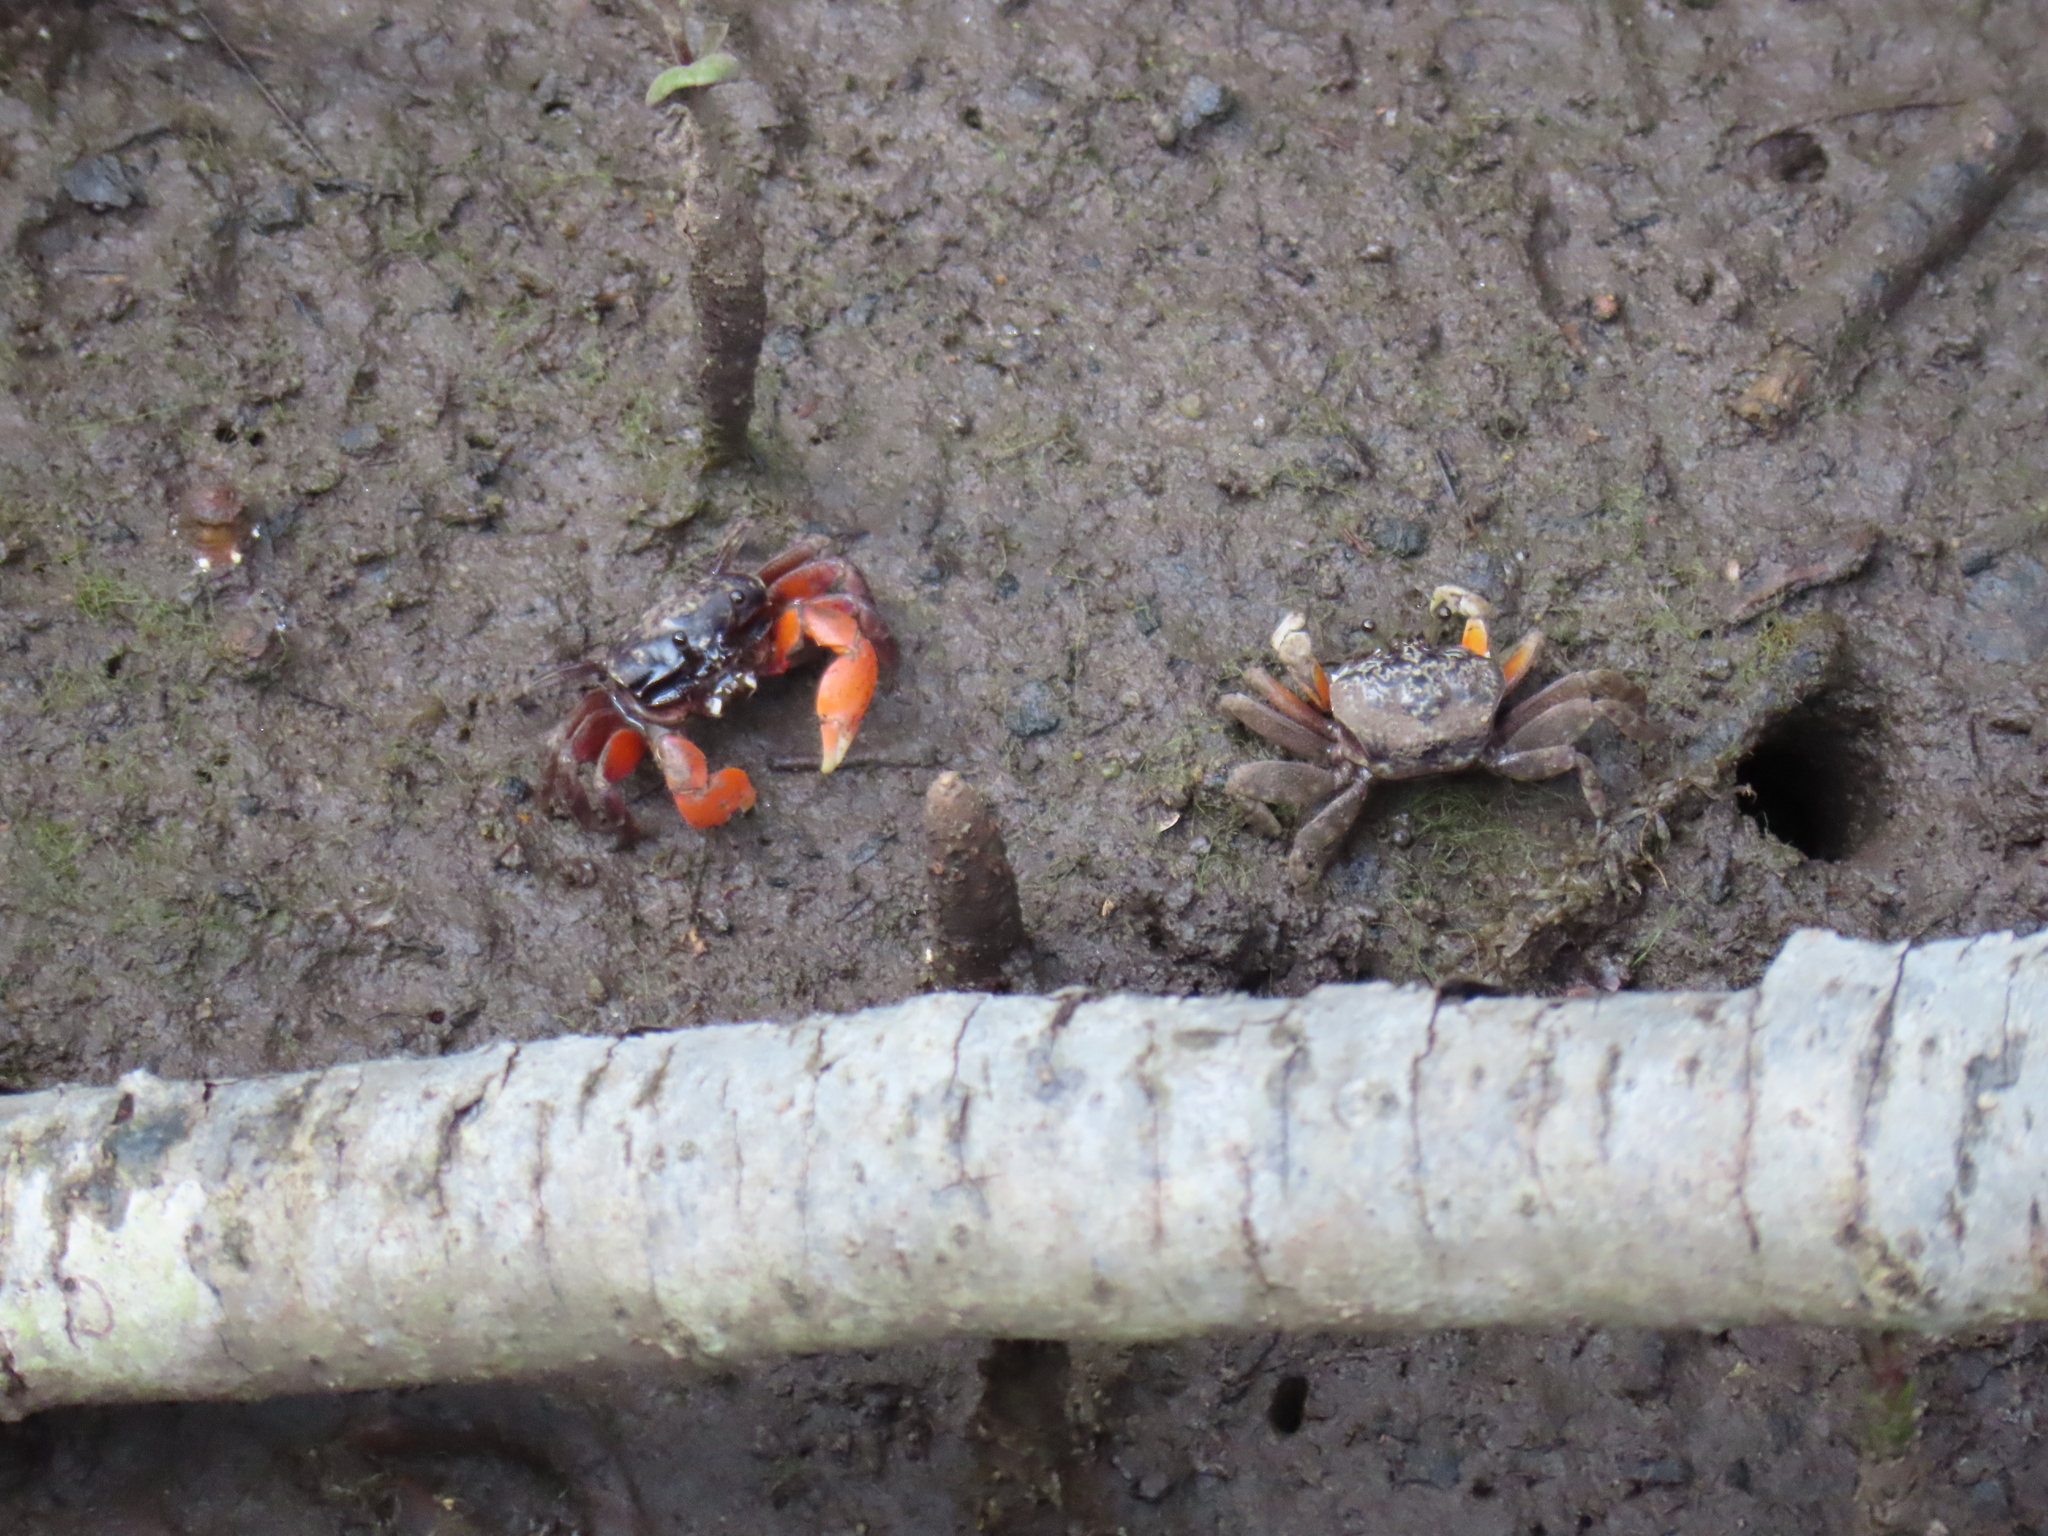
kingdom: Animalia
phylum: Arthropoda
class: Malacostraca
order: Decapoda
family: Heloeciidae
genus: Heloecius
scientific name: Heloecius cordiformis
